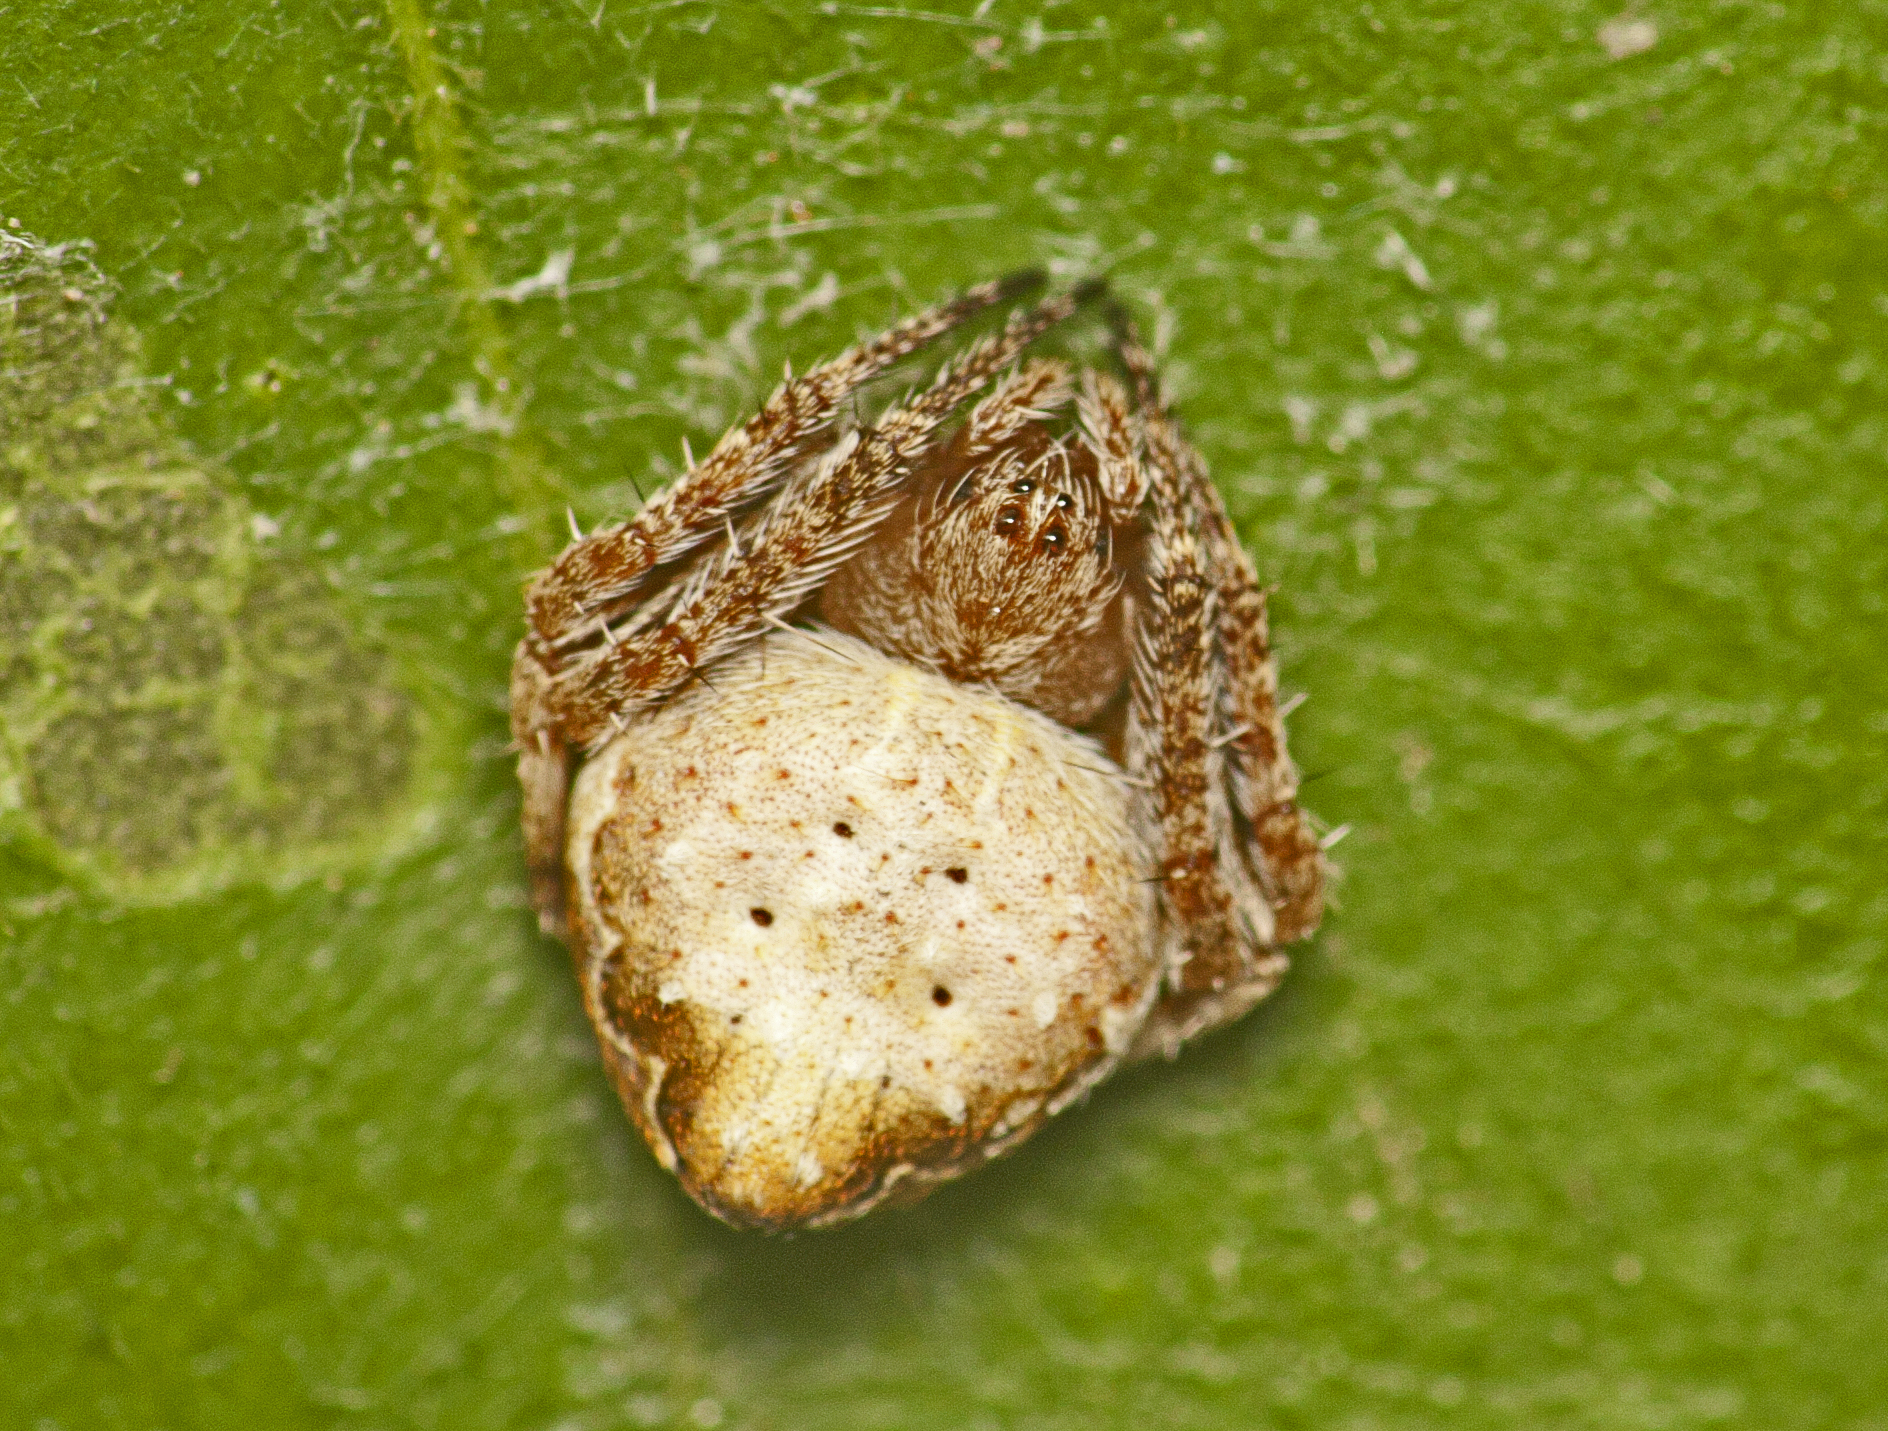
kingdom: Animalia
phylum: Arthropoda
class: Arachnida
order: Araneae
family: Araneidae
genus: Araneus
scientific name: Araneus acuminatus
